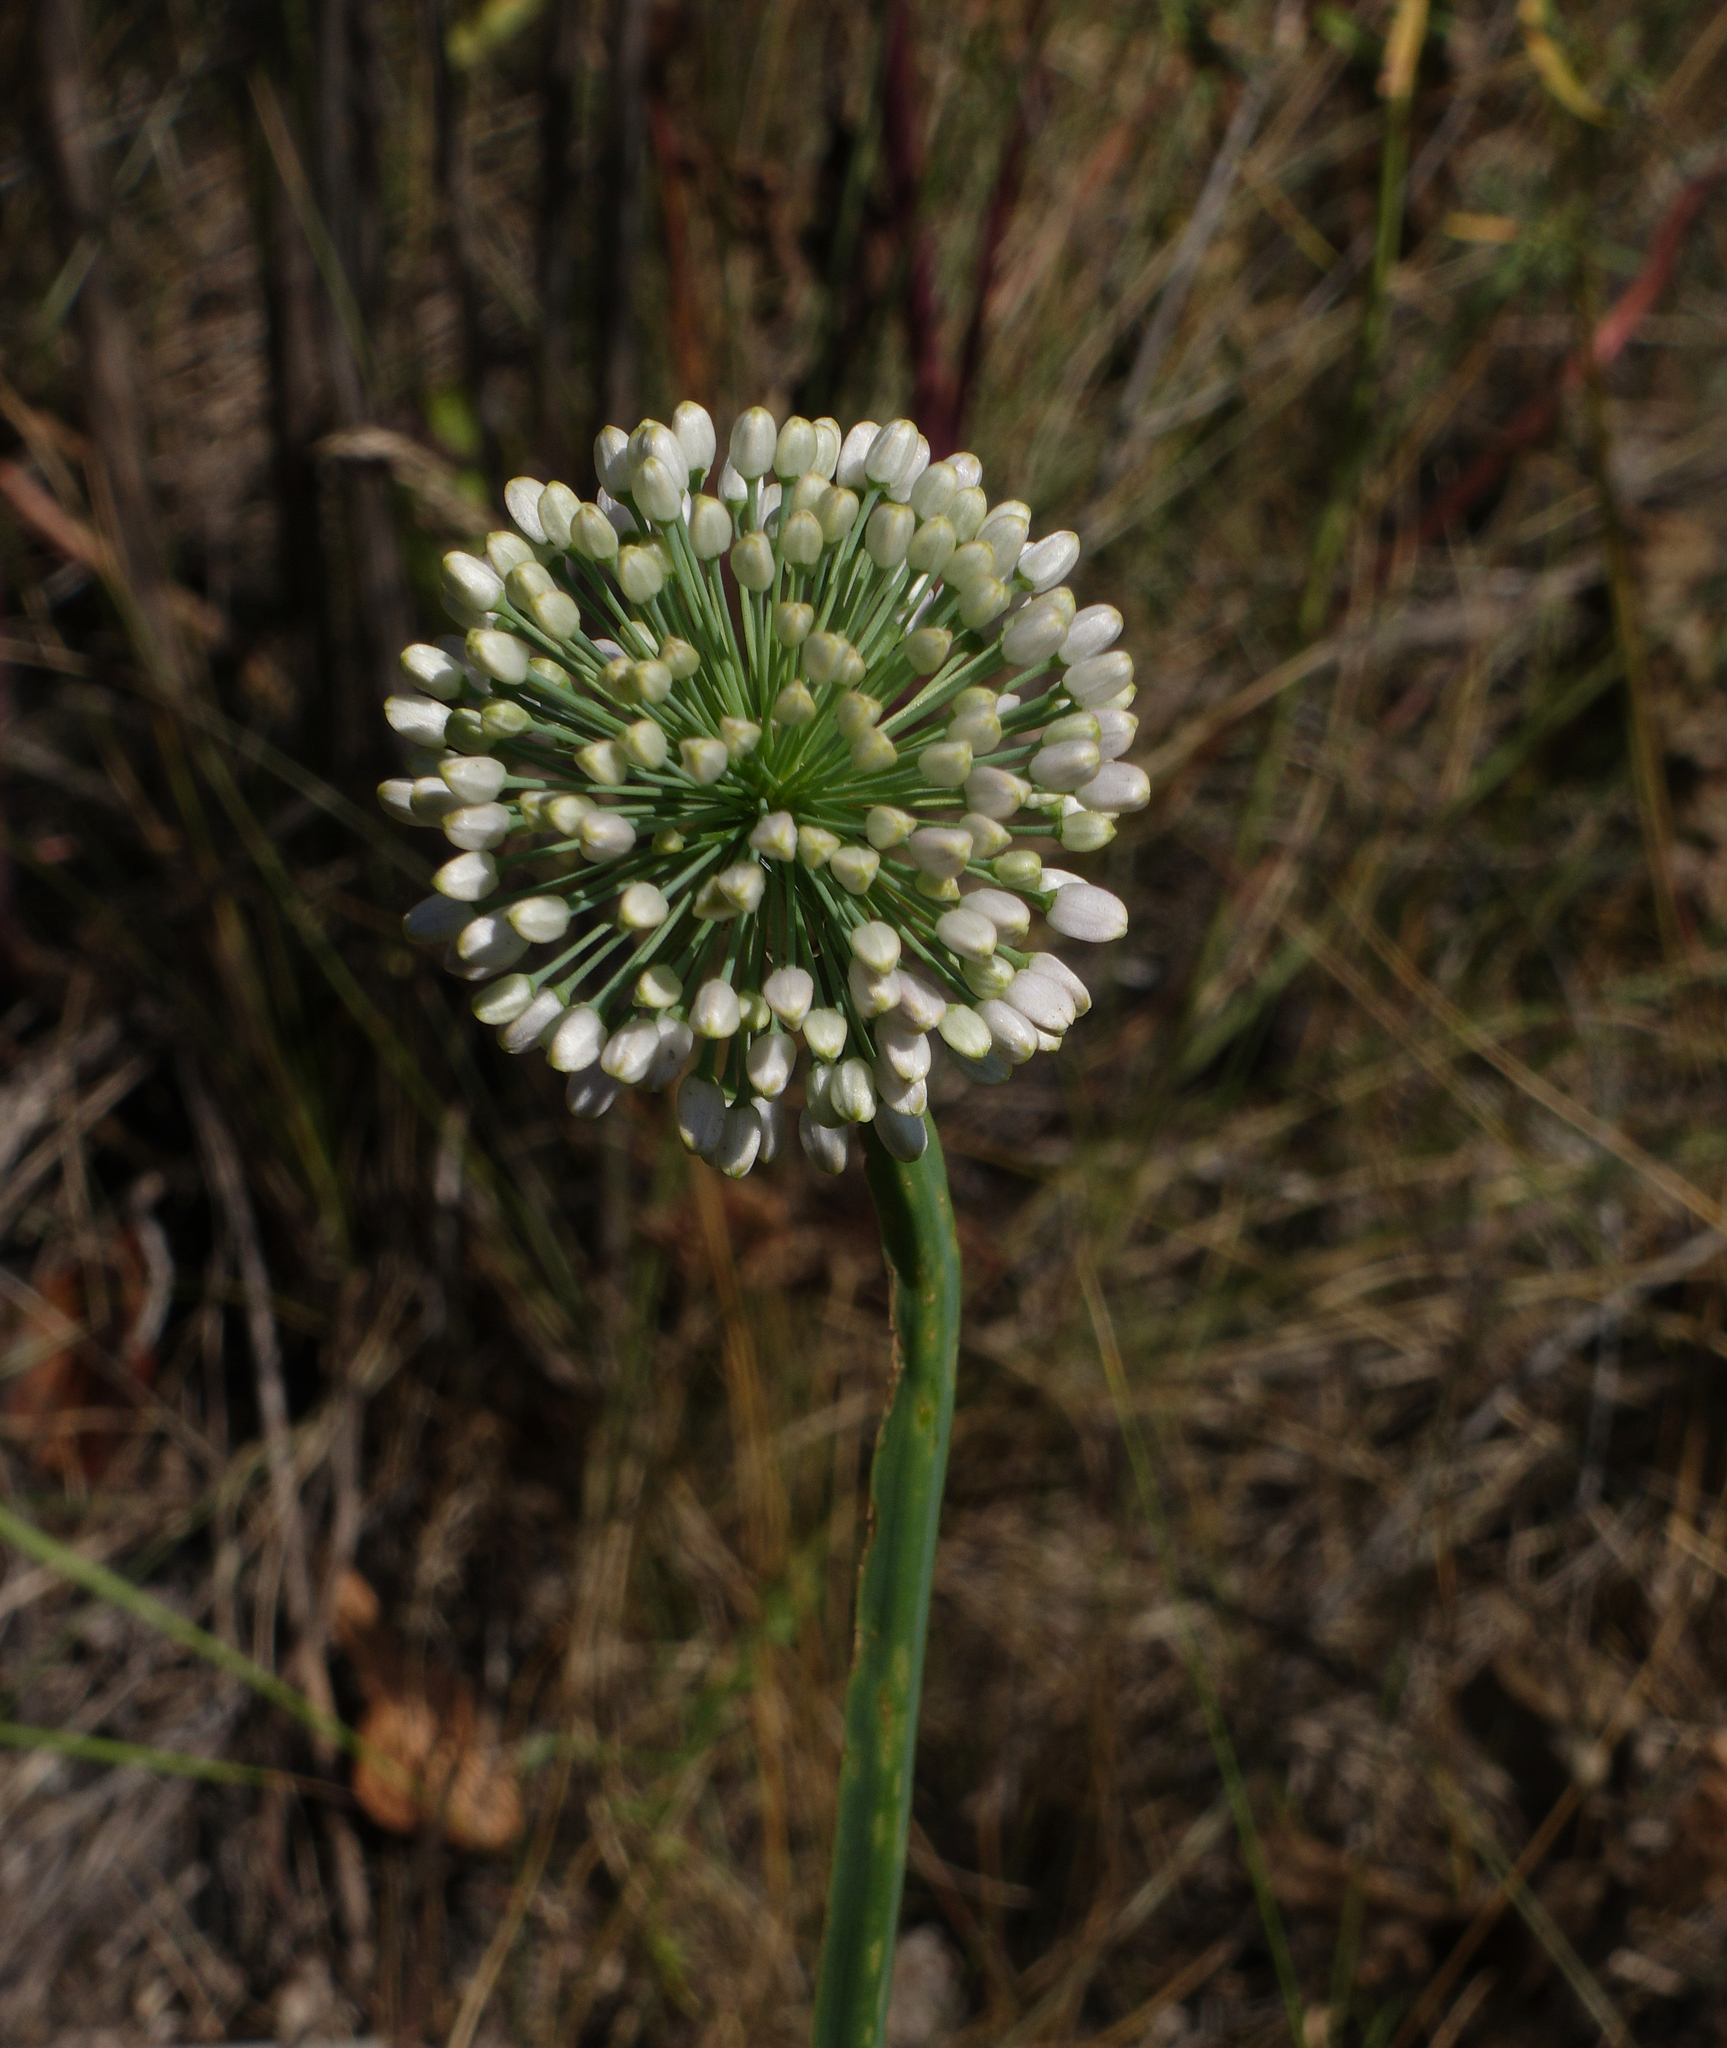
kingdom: Plantae
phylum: Tracheophyta
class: Liliopsida
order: Asparagales
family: Amaryllidaceae
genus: Allium
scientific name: Allium nutans
